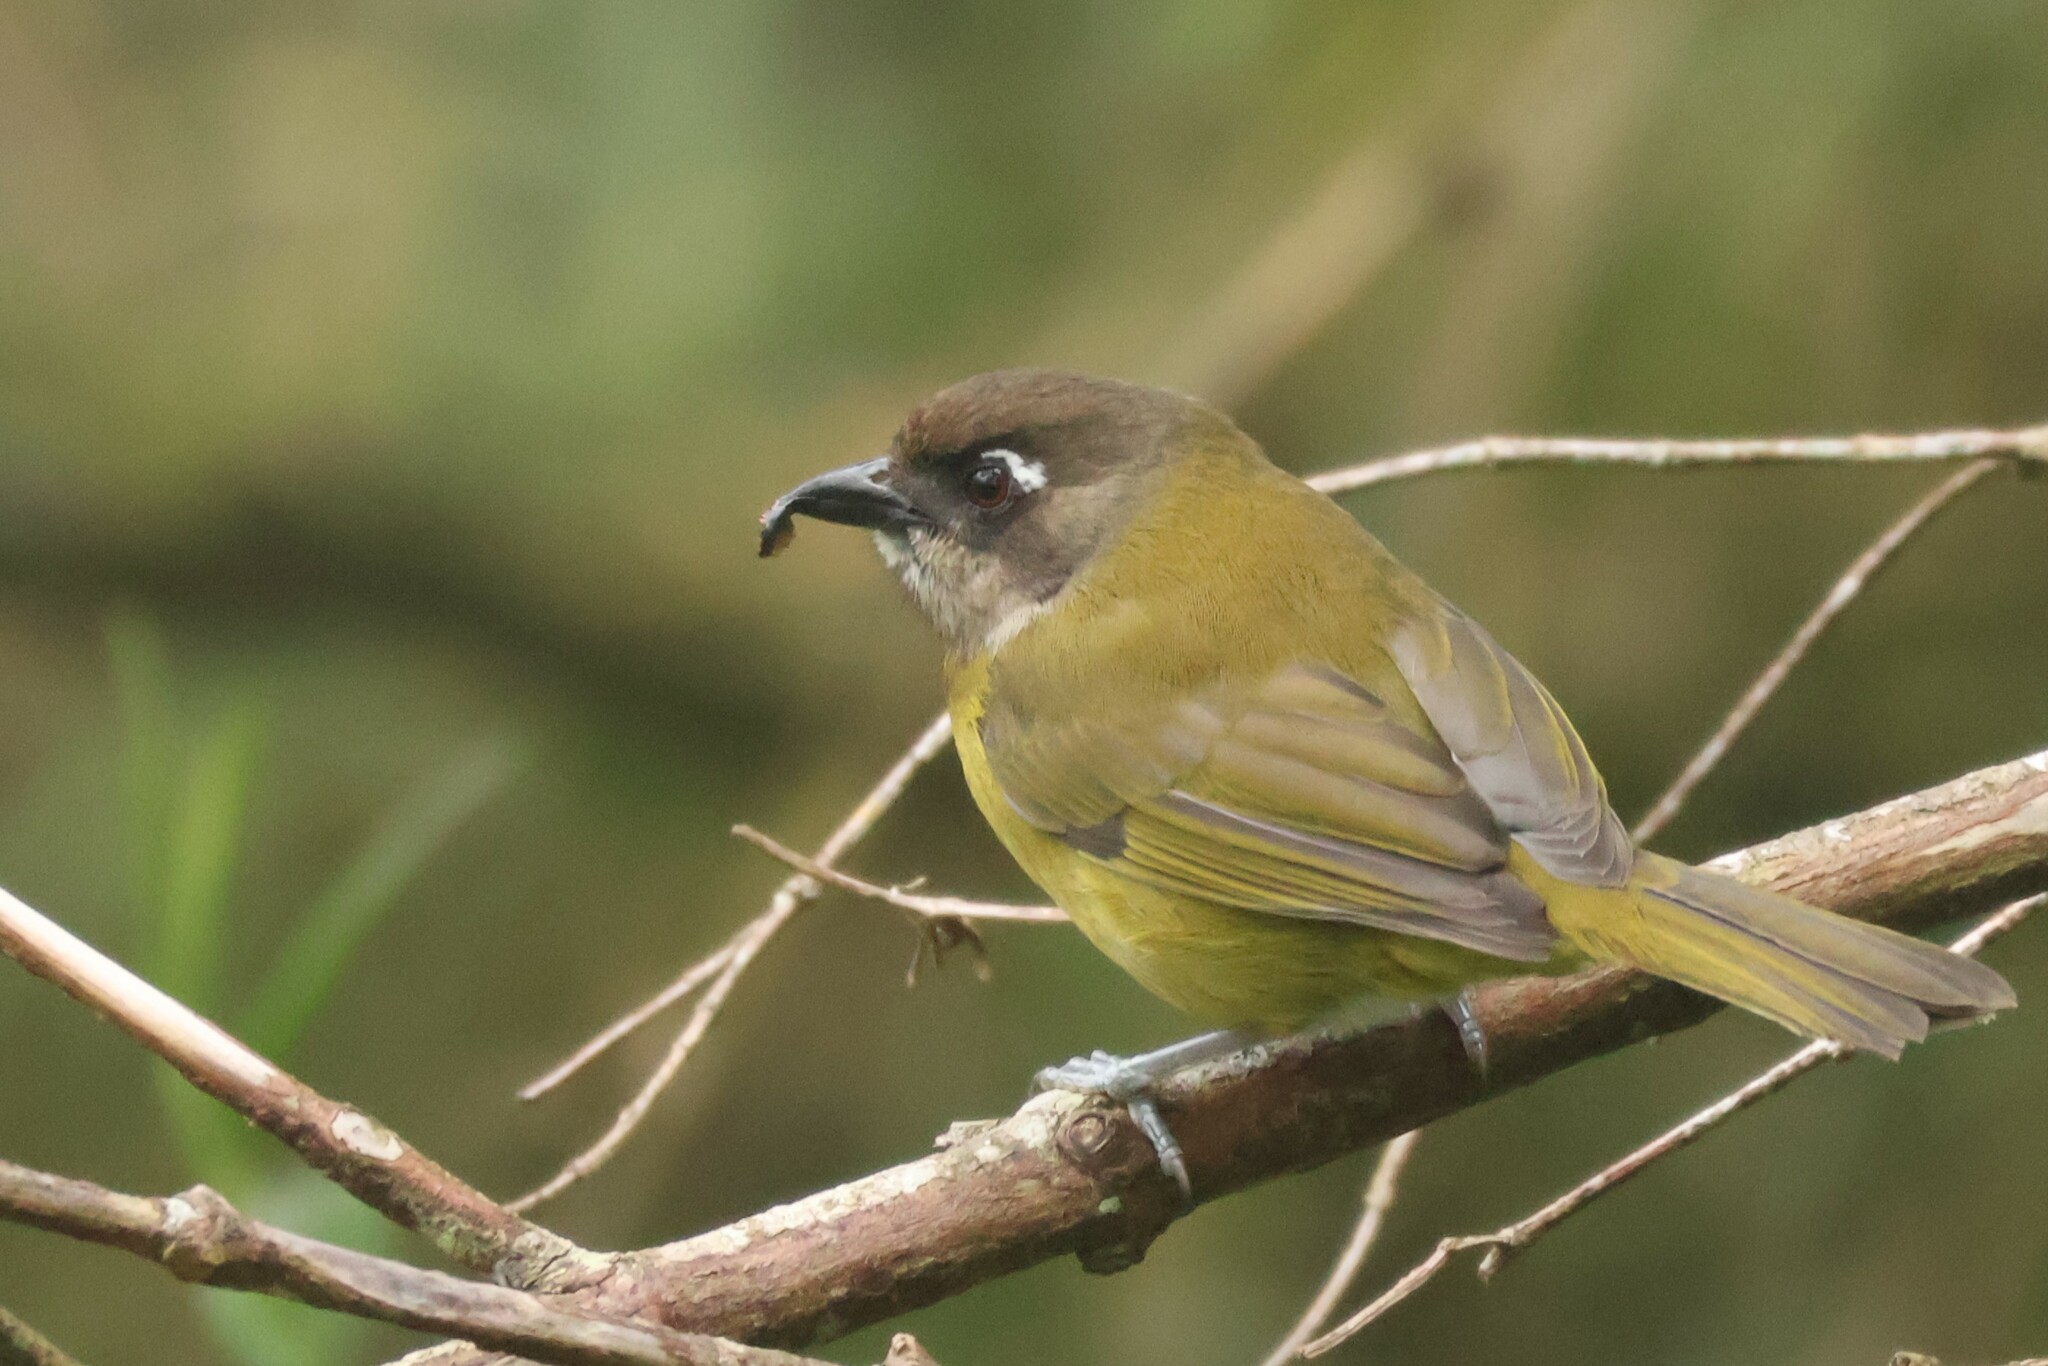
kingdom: Animalia
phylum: Chordata
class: Aves
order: Passeriformes
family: Passerellidae
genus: Chlorospingus
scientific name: Chlorospingus flavopectus
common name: Common chlorospingus
